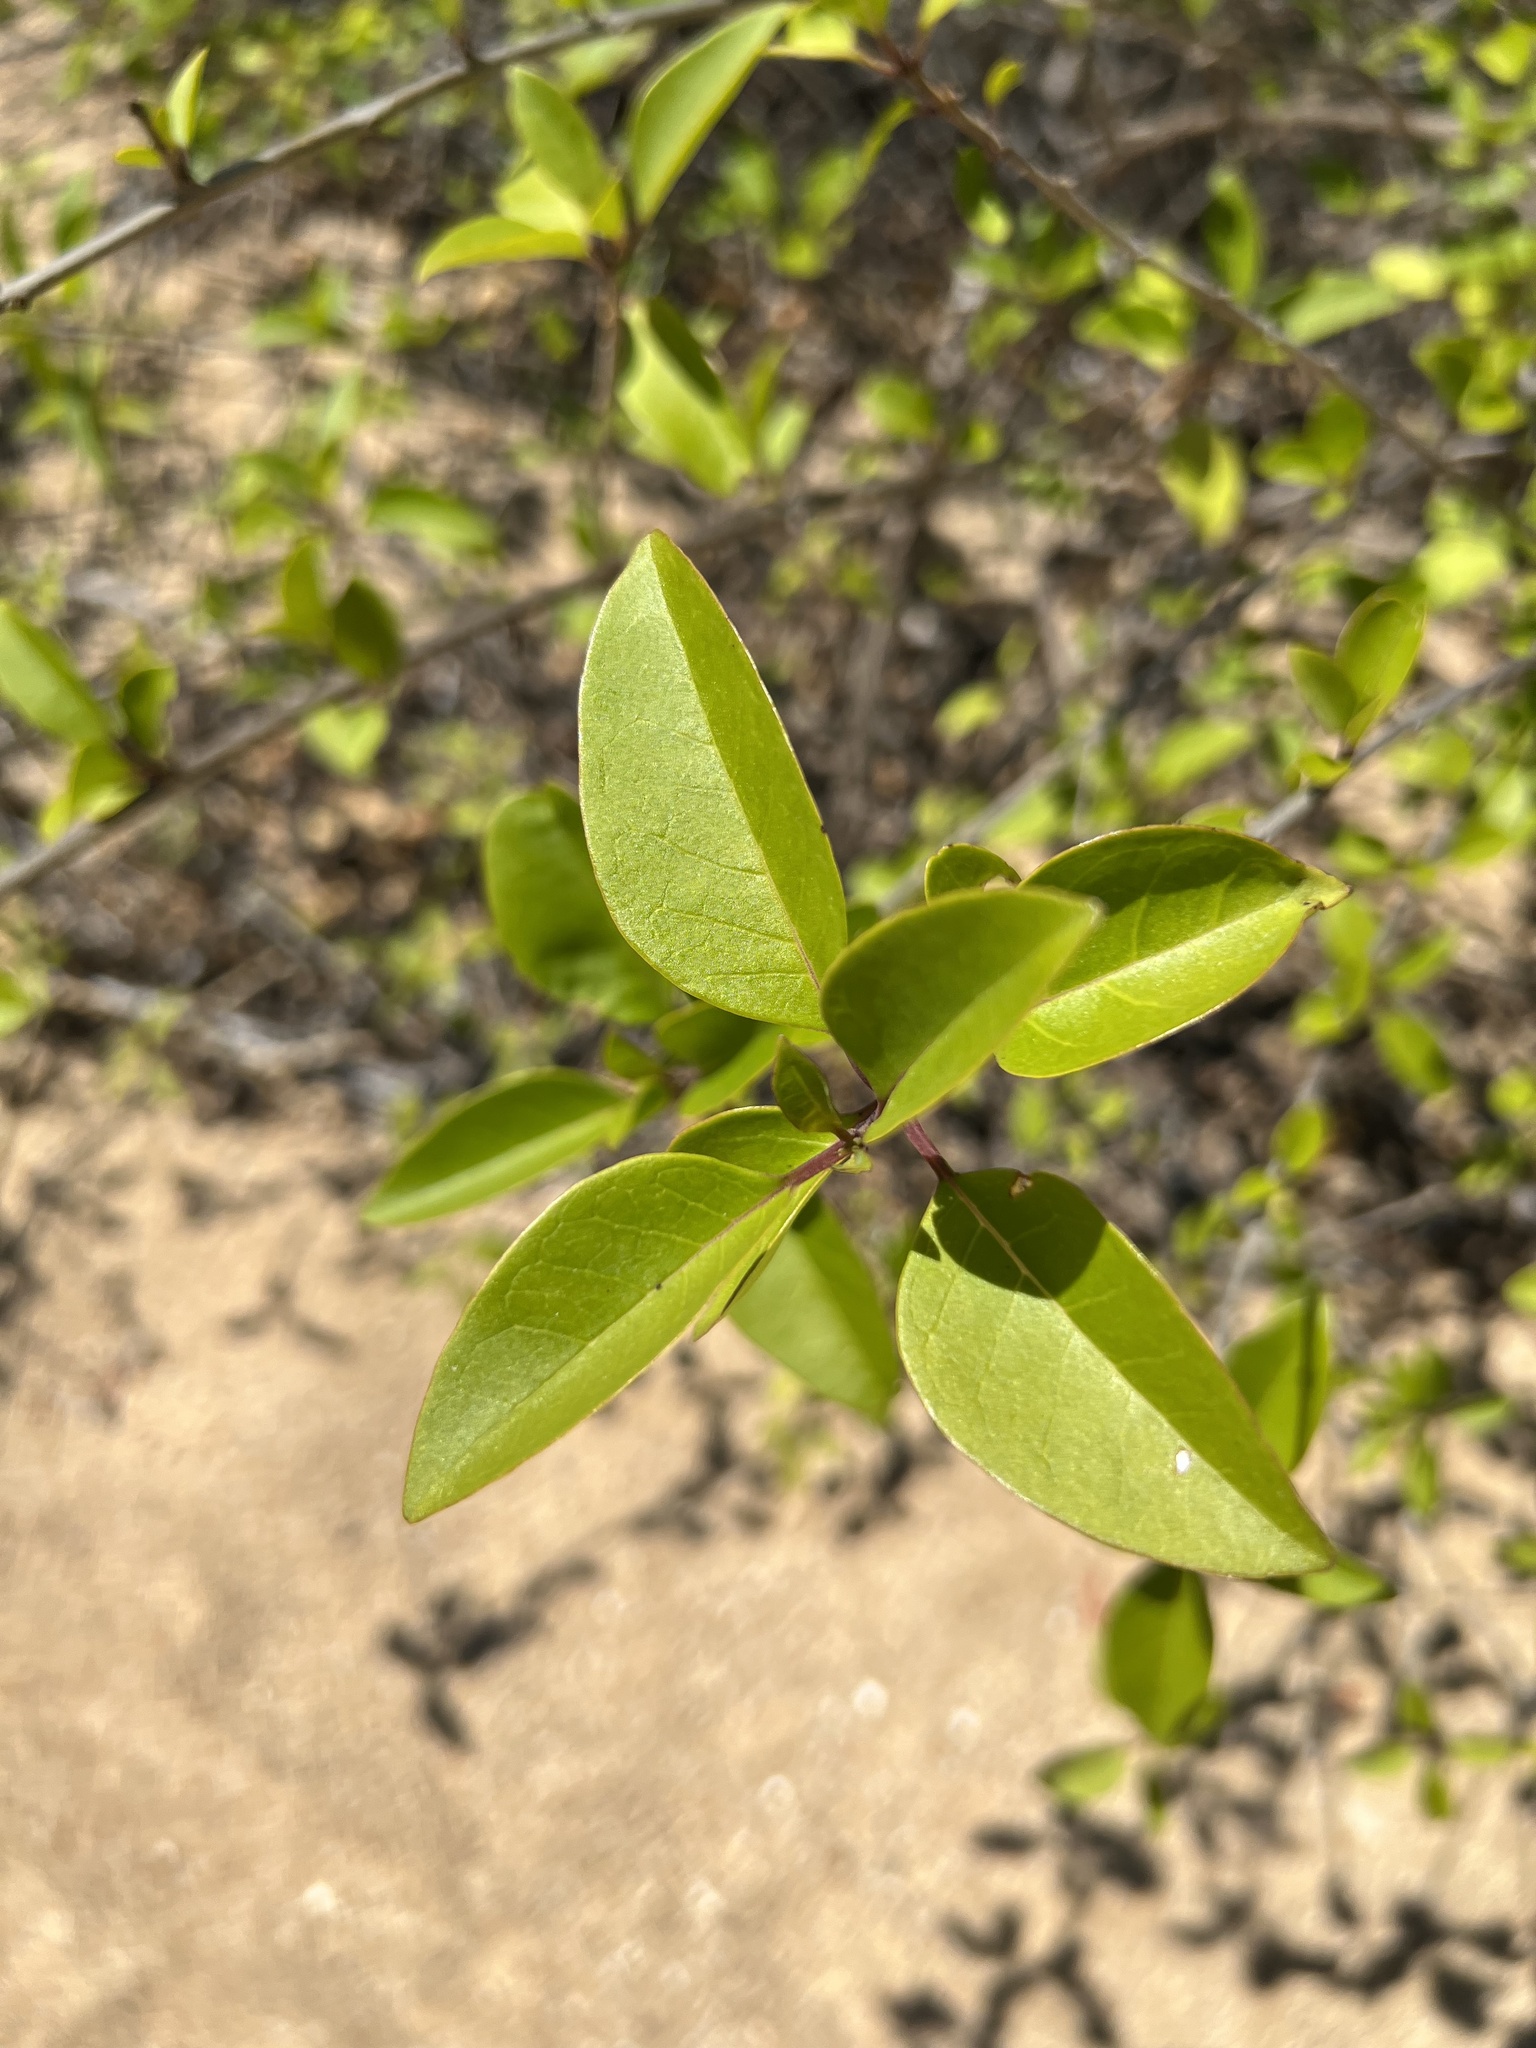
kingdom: Plantae
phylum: Tracheophyta
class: Magnoliopsida
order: Lamiales
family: Lamiaceae
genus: Volkameria
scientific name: Volkameria inermis
